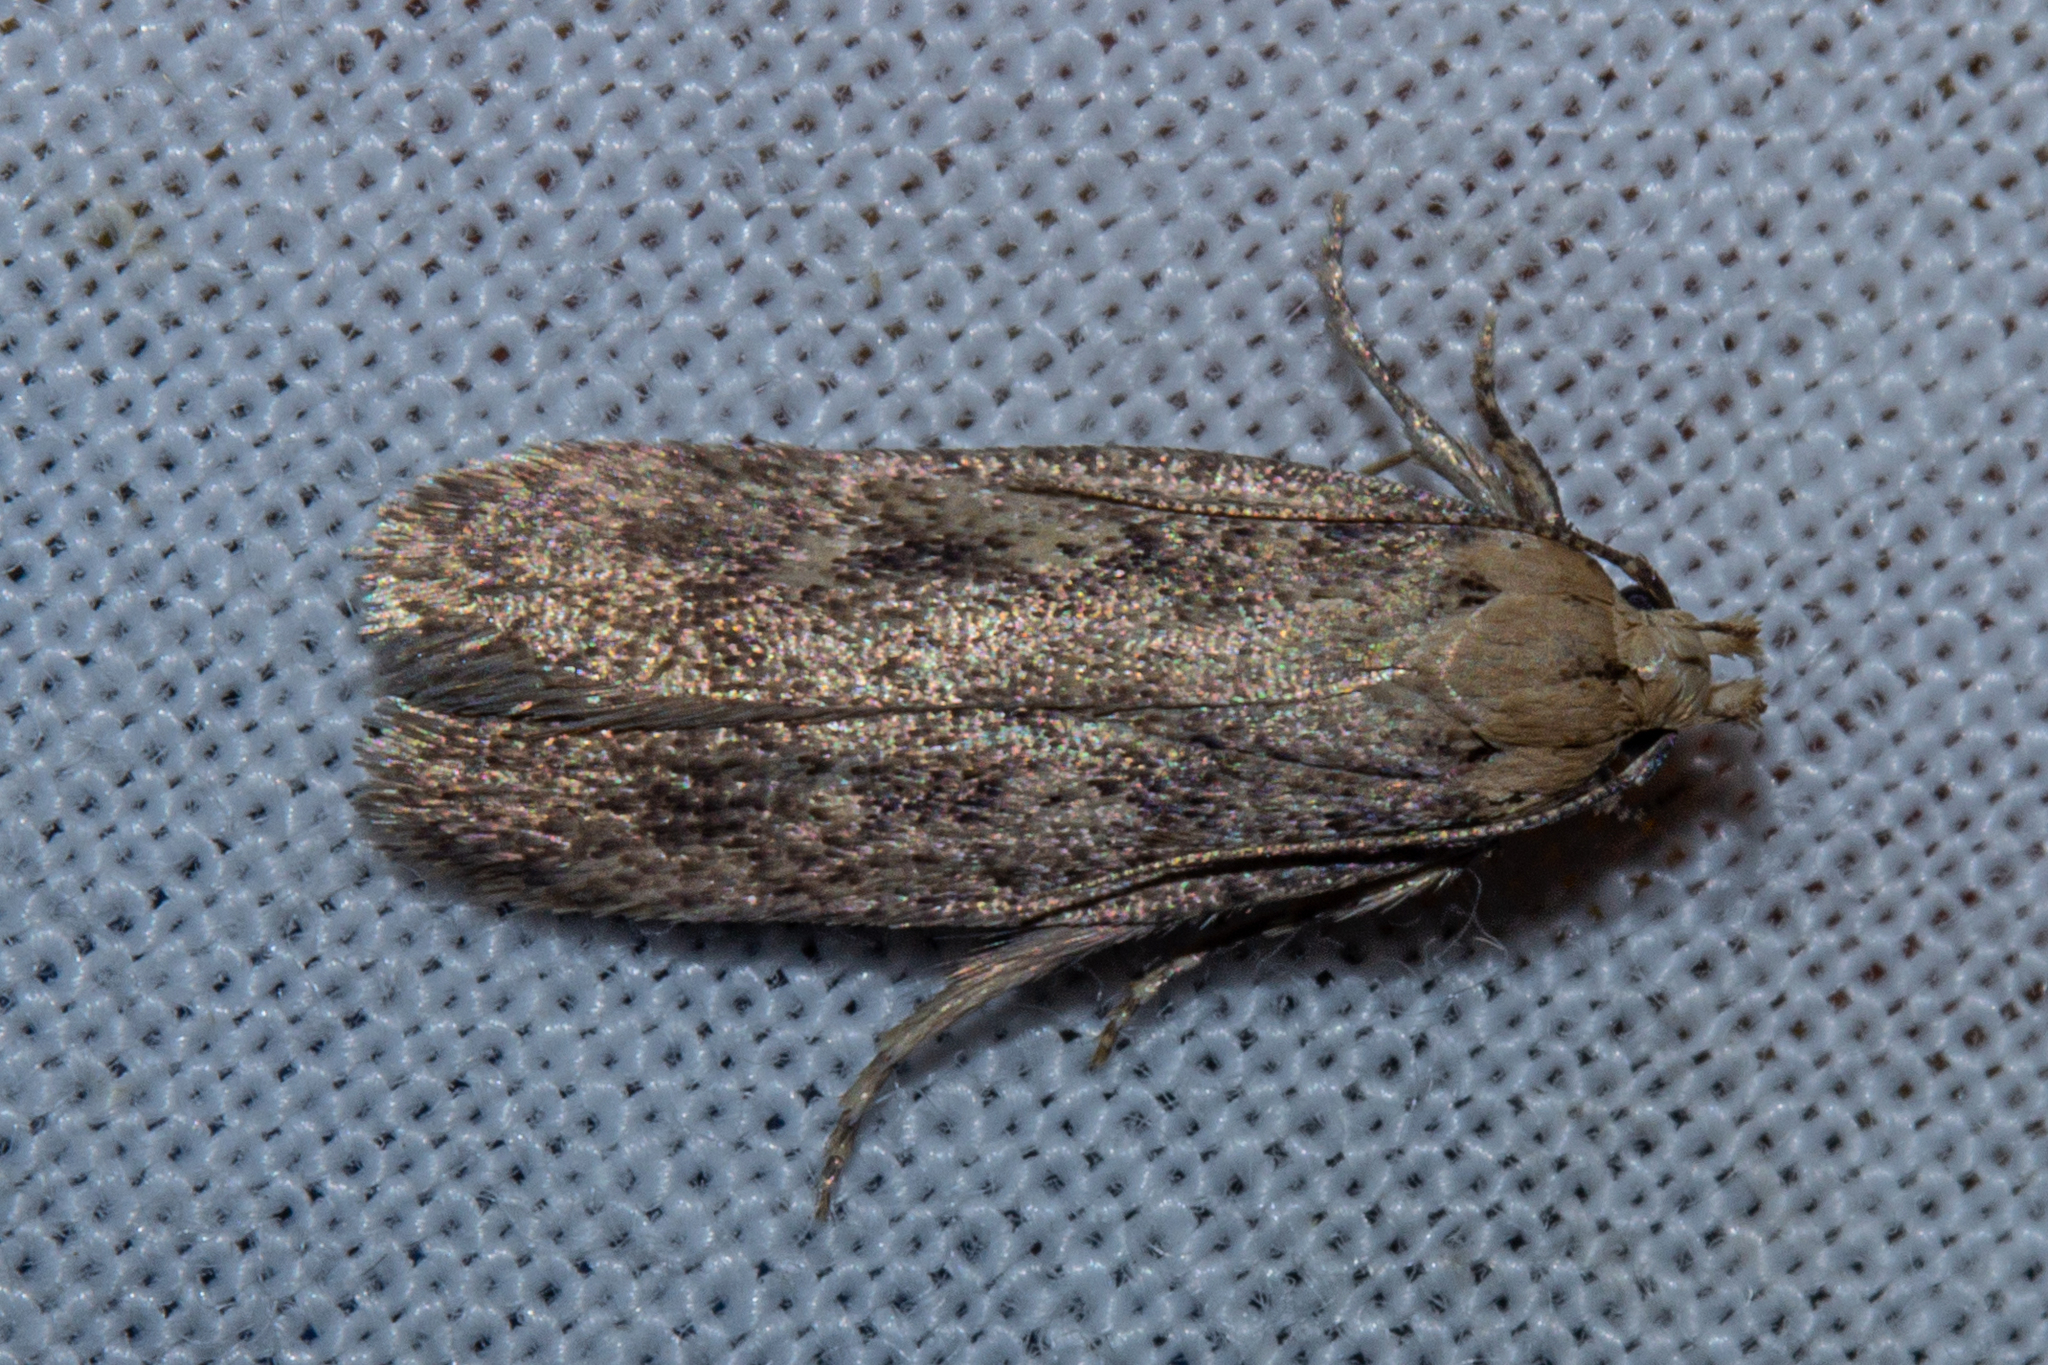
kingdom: Animalia
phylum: Arthropoda
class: Insecta
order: Lepidoptera
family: Gelechiidae
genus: Platyedra
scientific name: Platyedra subcinerea
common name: Moth
